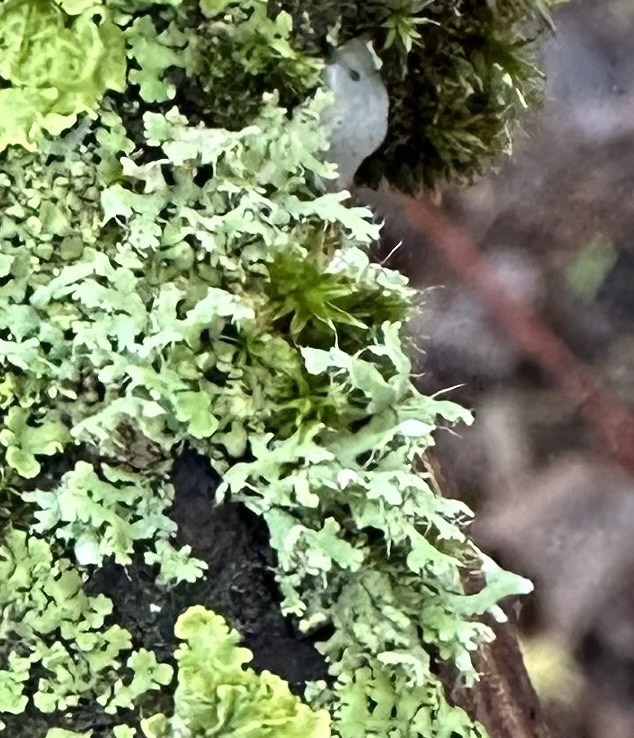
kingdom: Fungi
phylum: Ascomycota
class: Lecanoromycetes
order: Caliciales
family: Physciaceae
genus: Physcia
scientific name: Physcia tenella
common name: Fringed rosette lichen
